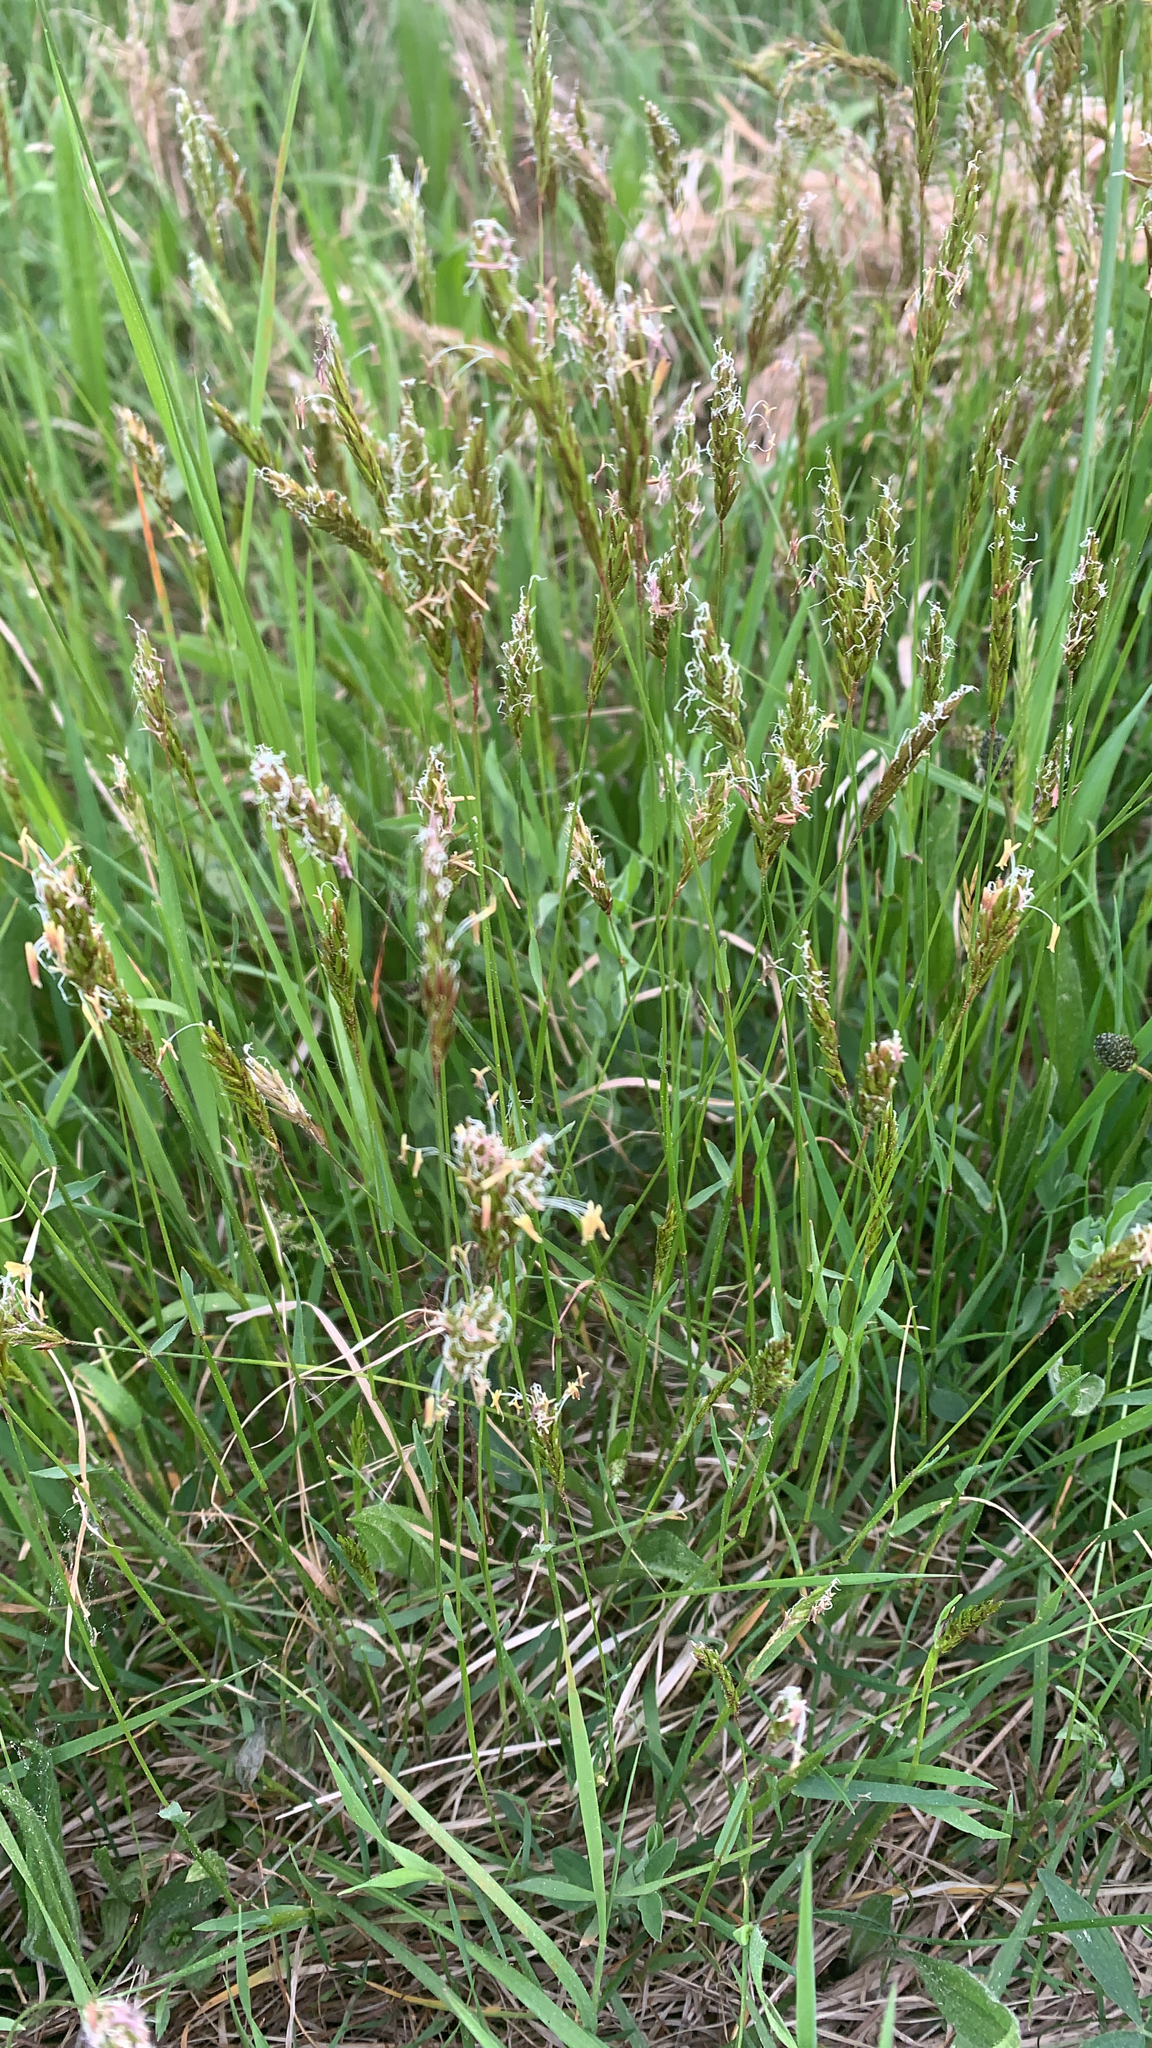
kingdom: Plantae
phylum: Tracheophyta
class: Liliopsida
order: Poales
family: Poaceae
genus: Anthoxanthum
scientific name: Anthoxanthum odoratum
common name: Sweet vernalgrass
